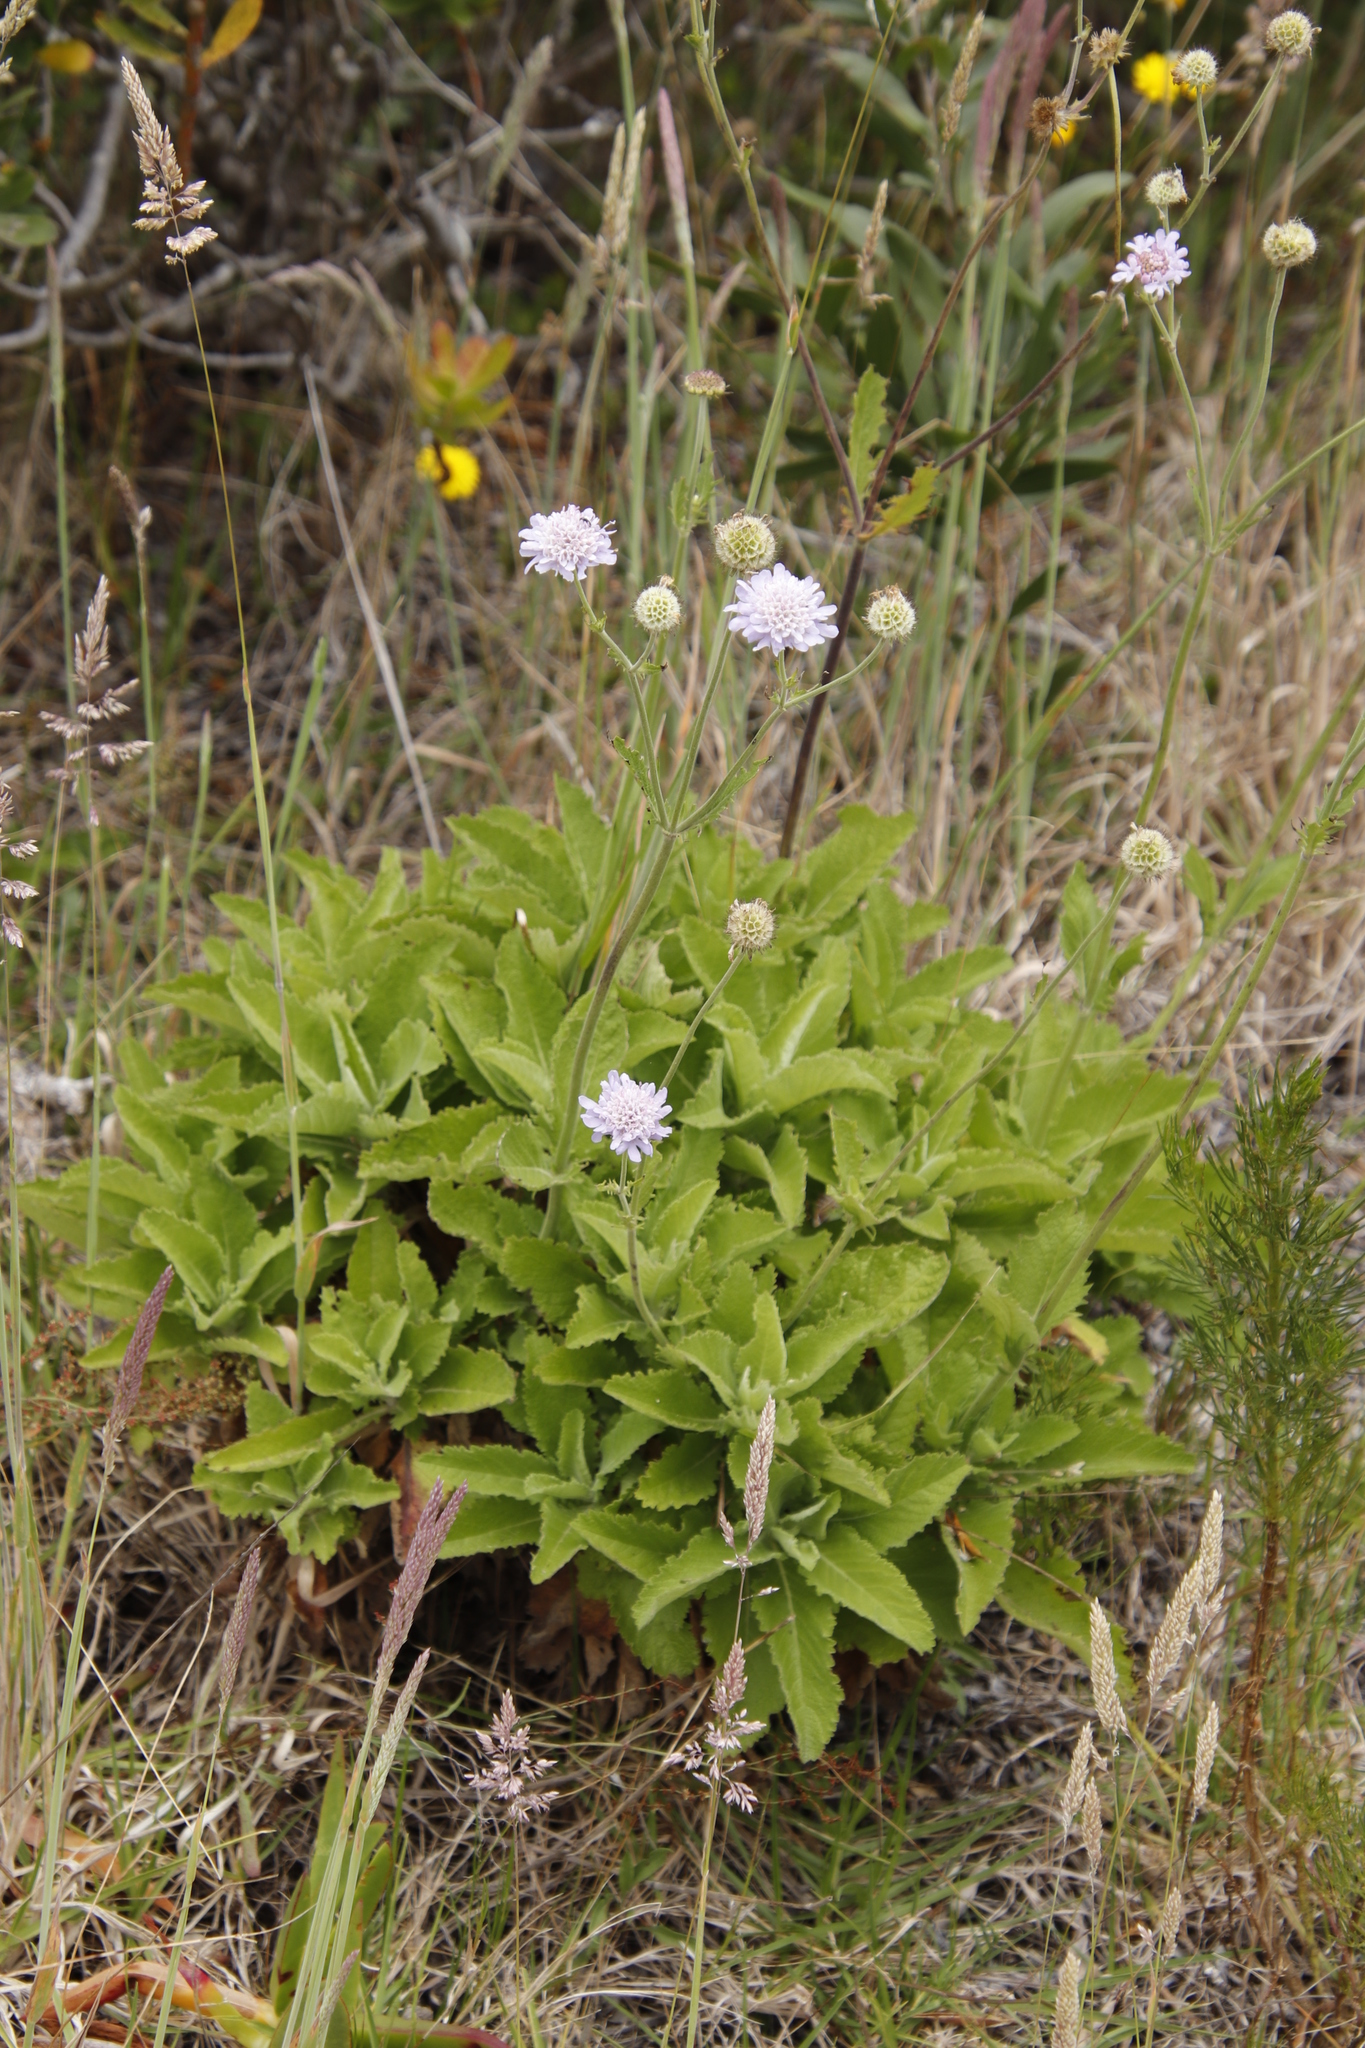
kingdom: Plantae
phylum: Tracheophyta
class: Magnoliopsida
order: Dipsacales
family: Caprifoliaceae
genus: Scabiosa
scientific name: Scabiosa africana
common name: Cape scabious
